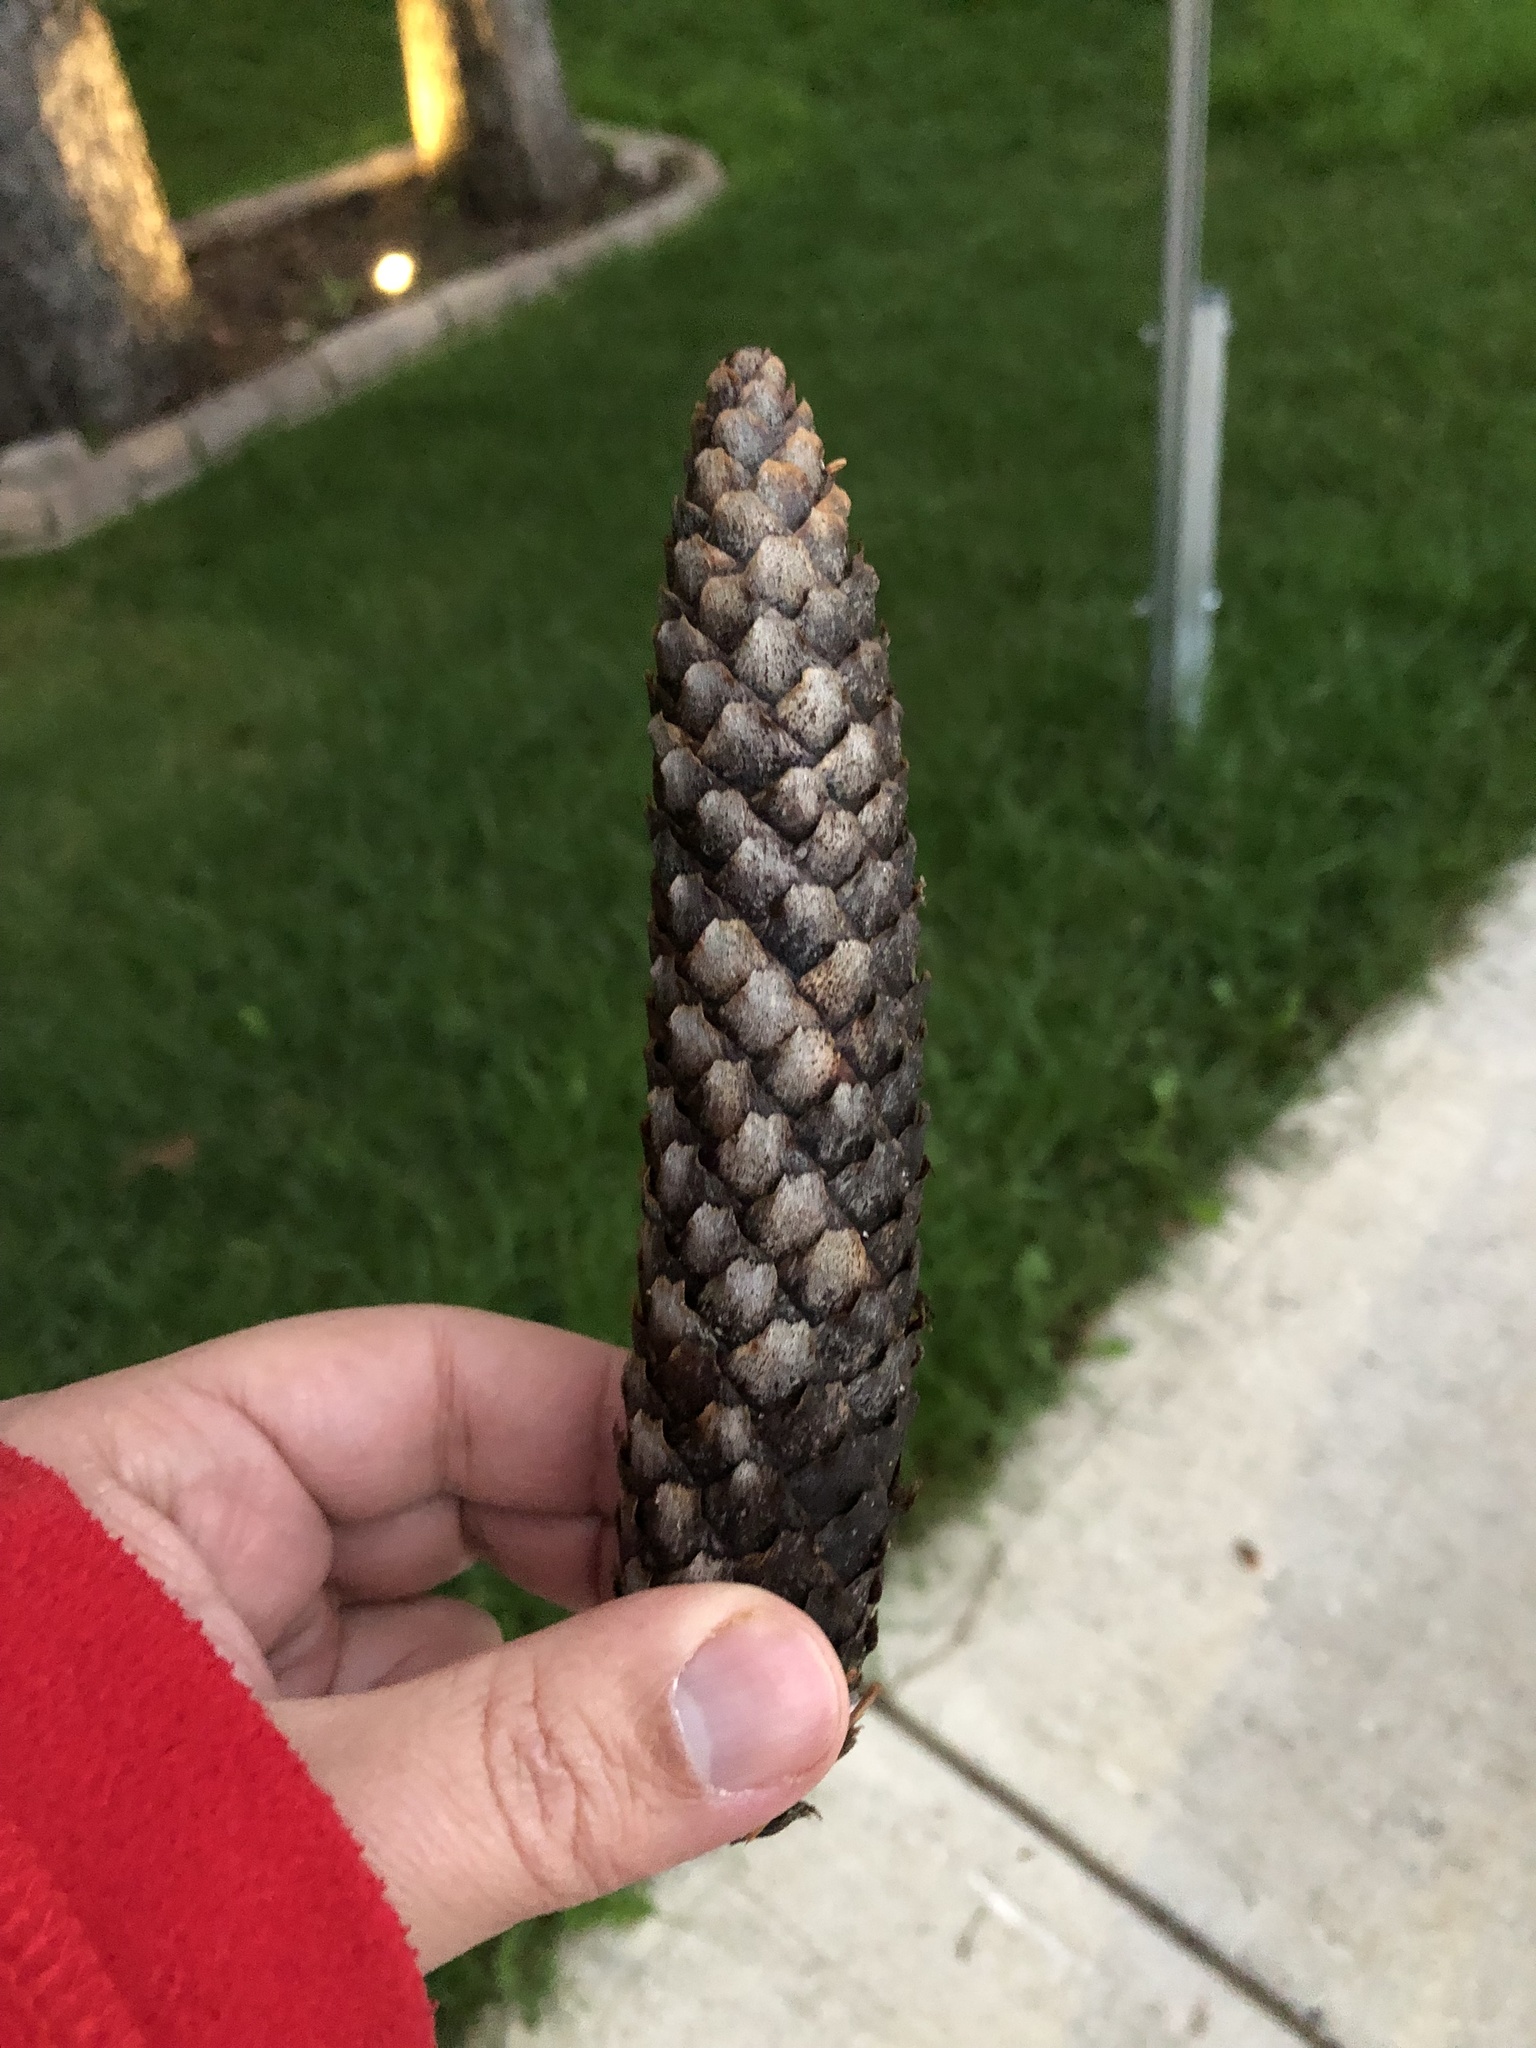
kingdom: Plantae
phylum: Tracheophyta
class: Pinopsida
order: Pinales
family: Pinaceae
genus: Picea
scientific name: Picea abies
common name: Norway spruce
